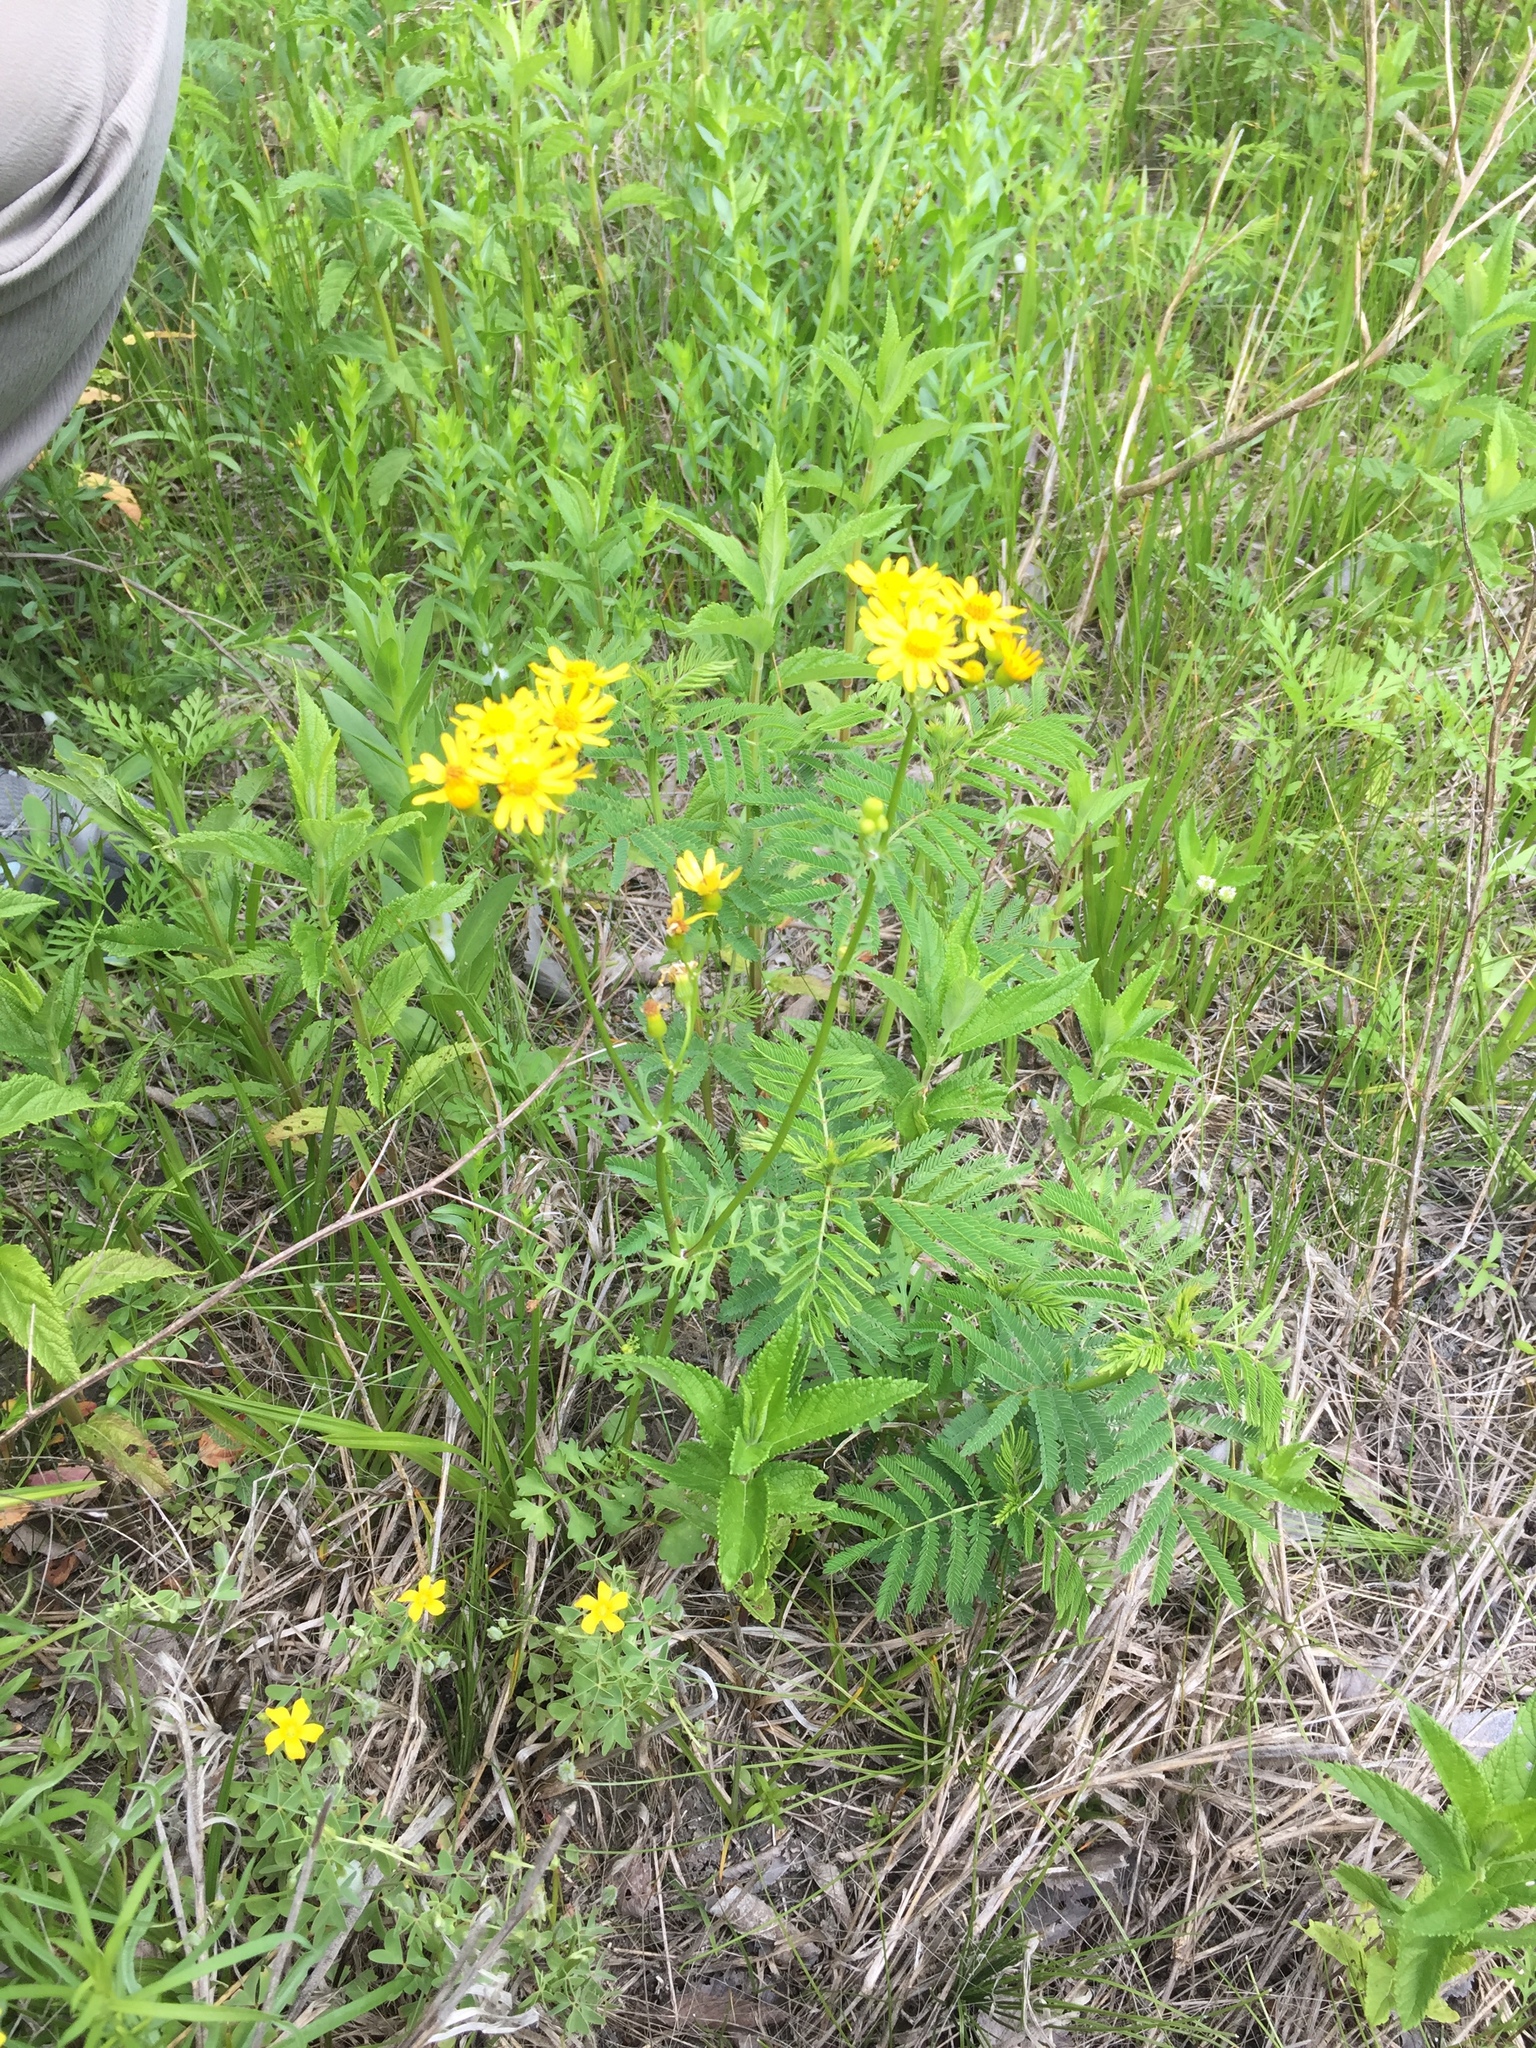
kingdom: Plantae
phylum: Tracheophyta
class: Magnoliopsida
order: Asterales
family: Asteraceae
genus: Packera
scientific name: Packera tampicana
